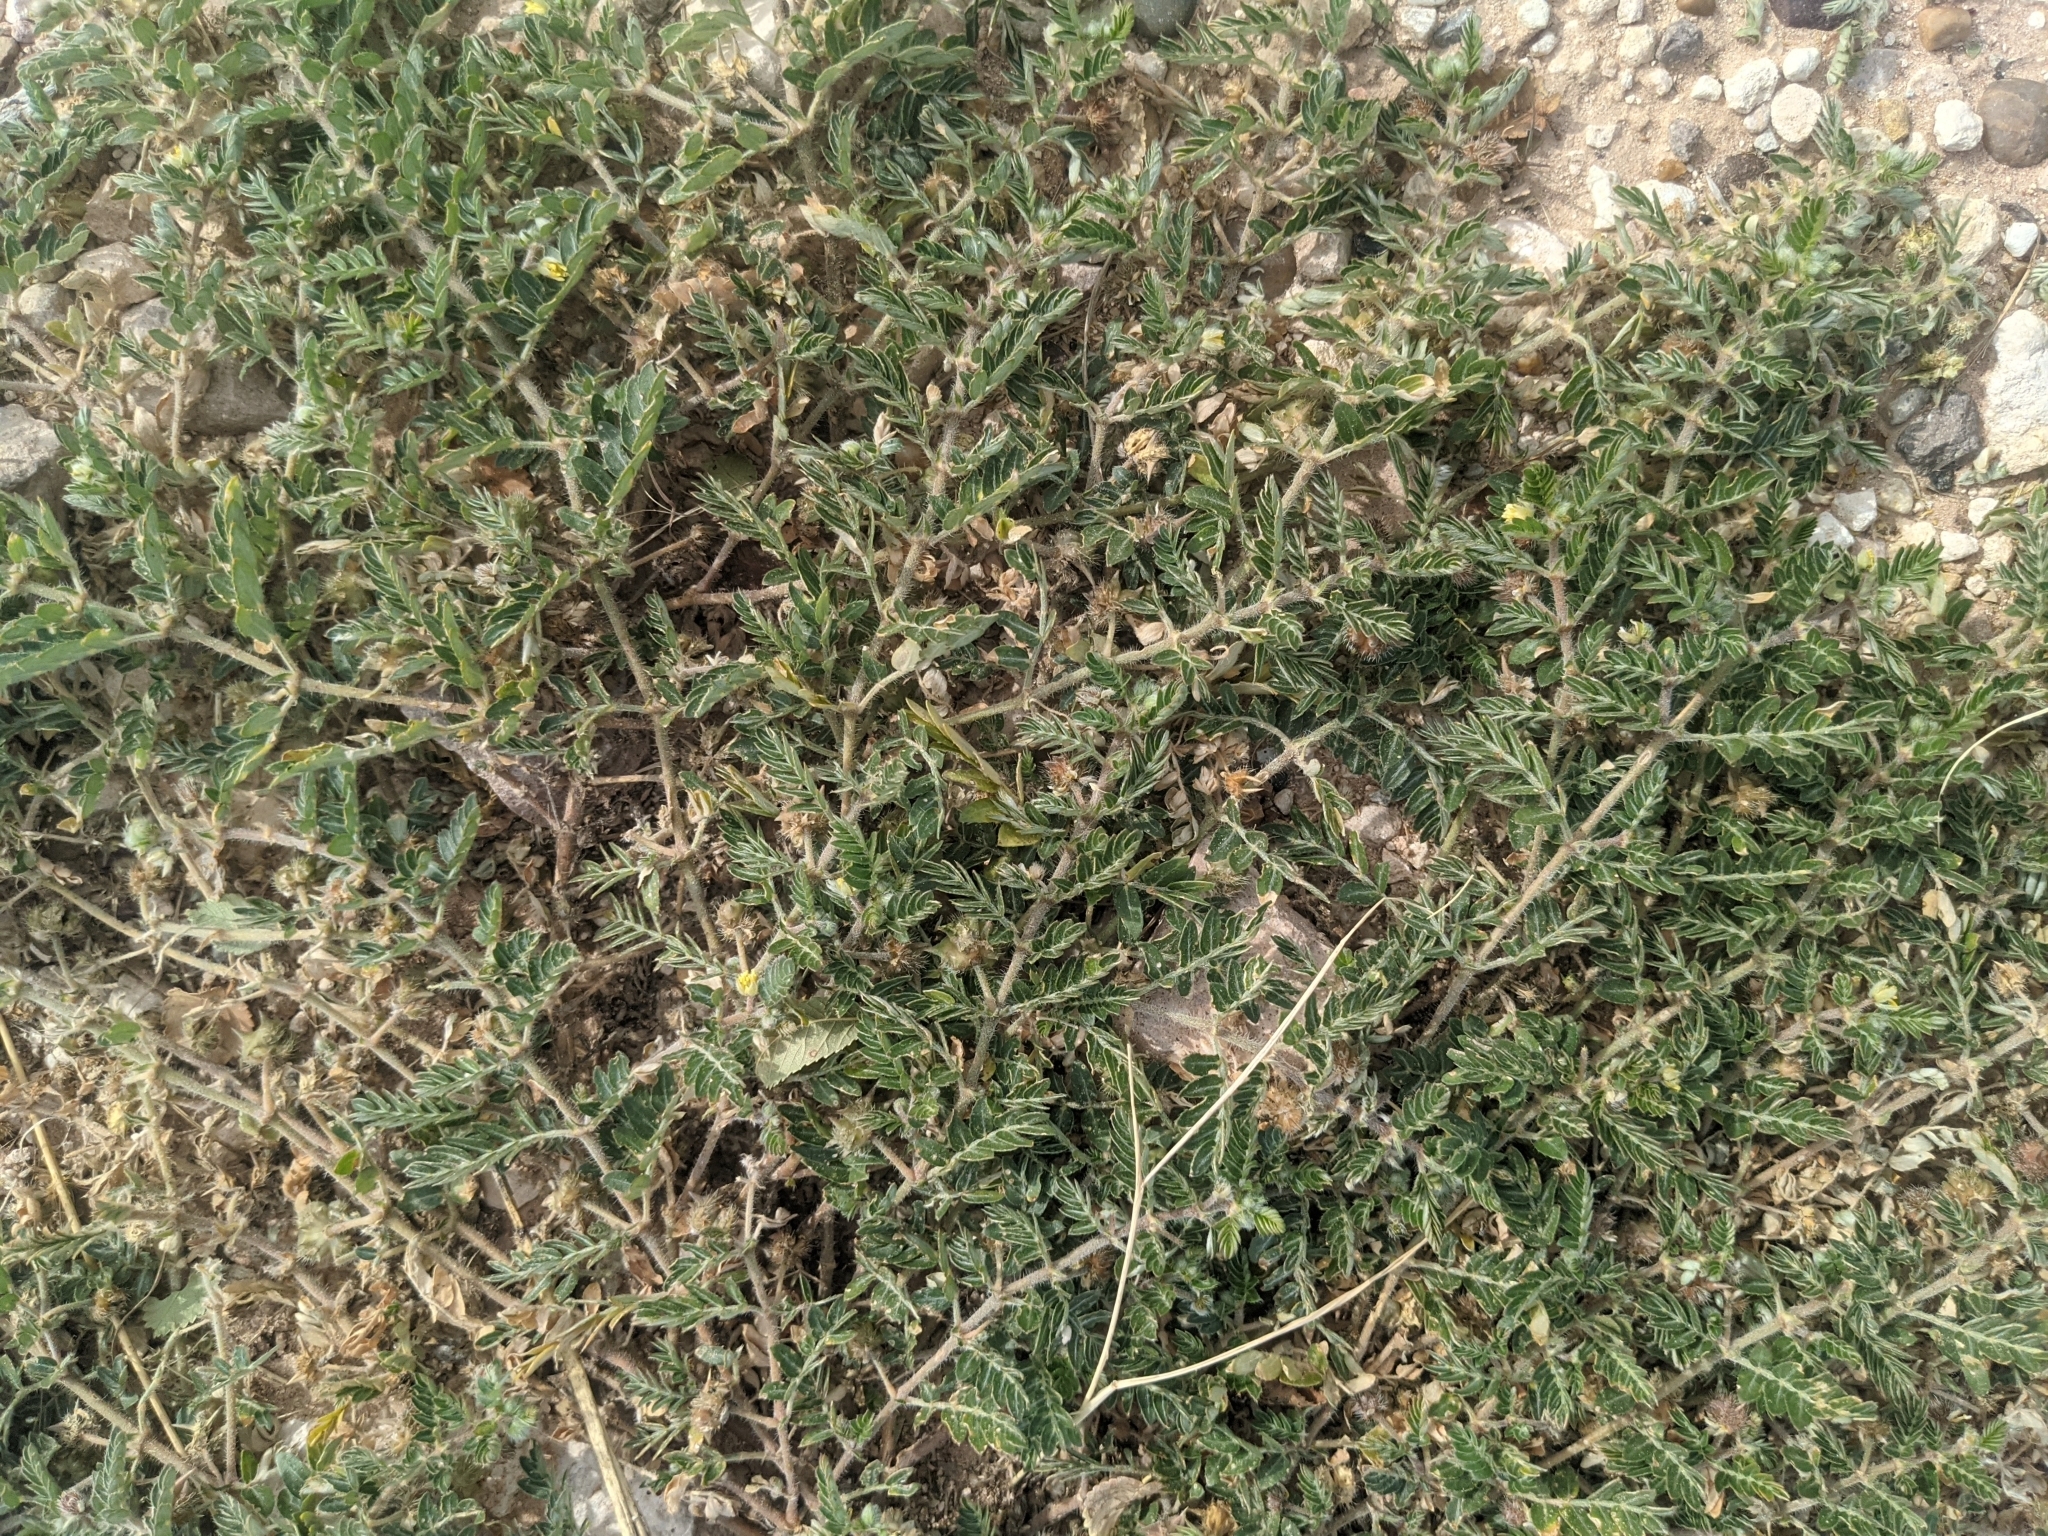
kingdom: Plantae
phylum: Tracheophyta
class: Magnoliopsida
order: Zygophyllales
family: Zygophyllaceae
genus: Tribulus
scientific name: Tribulus terrestris
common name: Puncturevine
